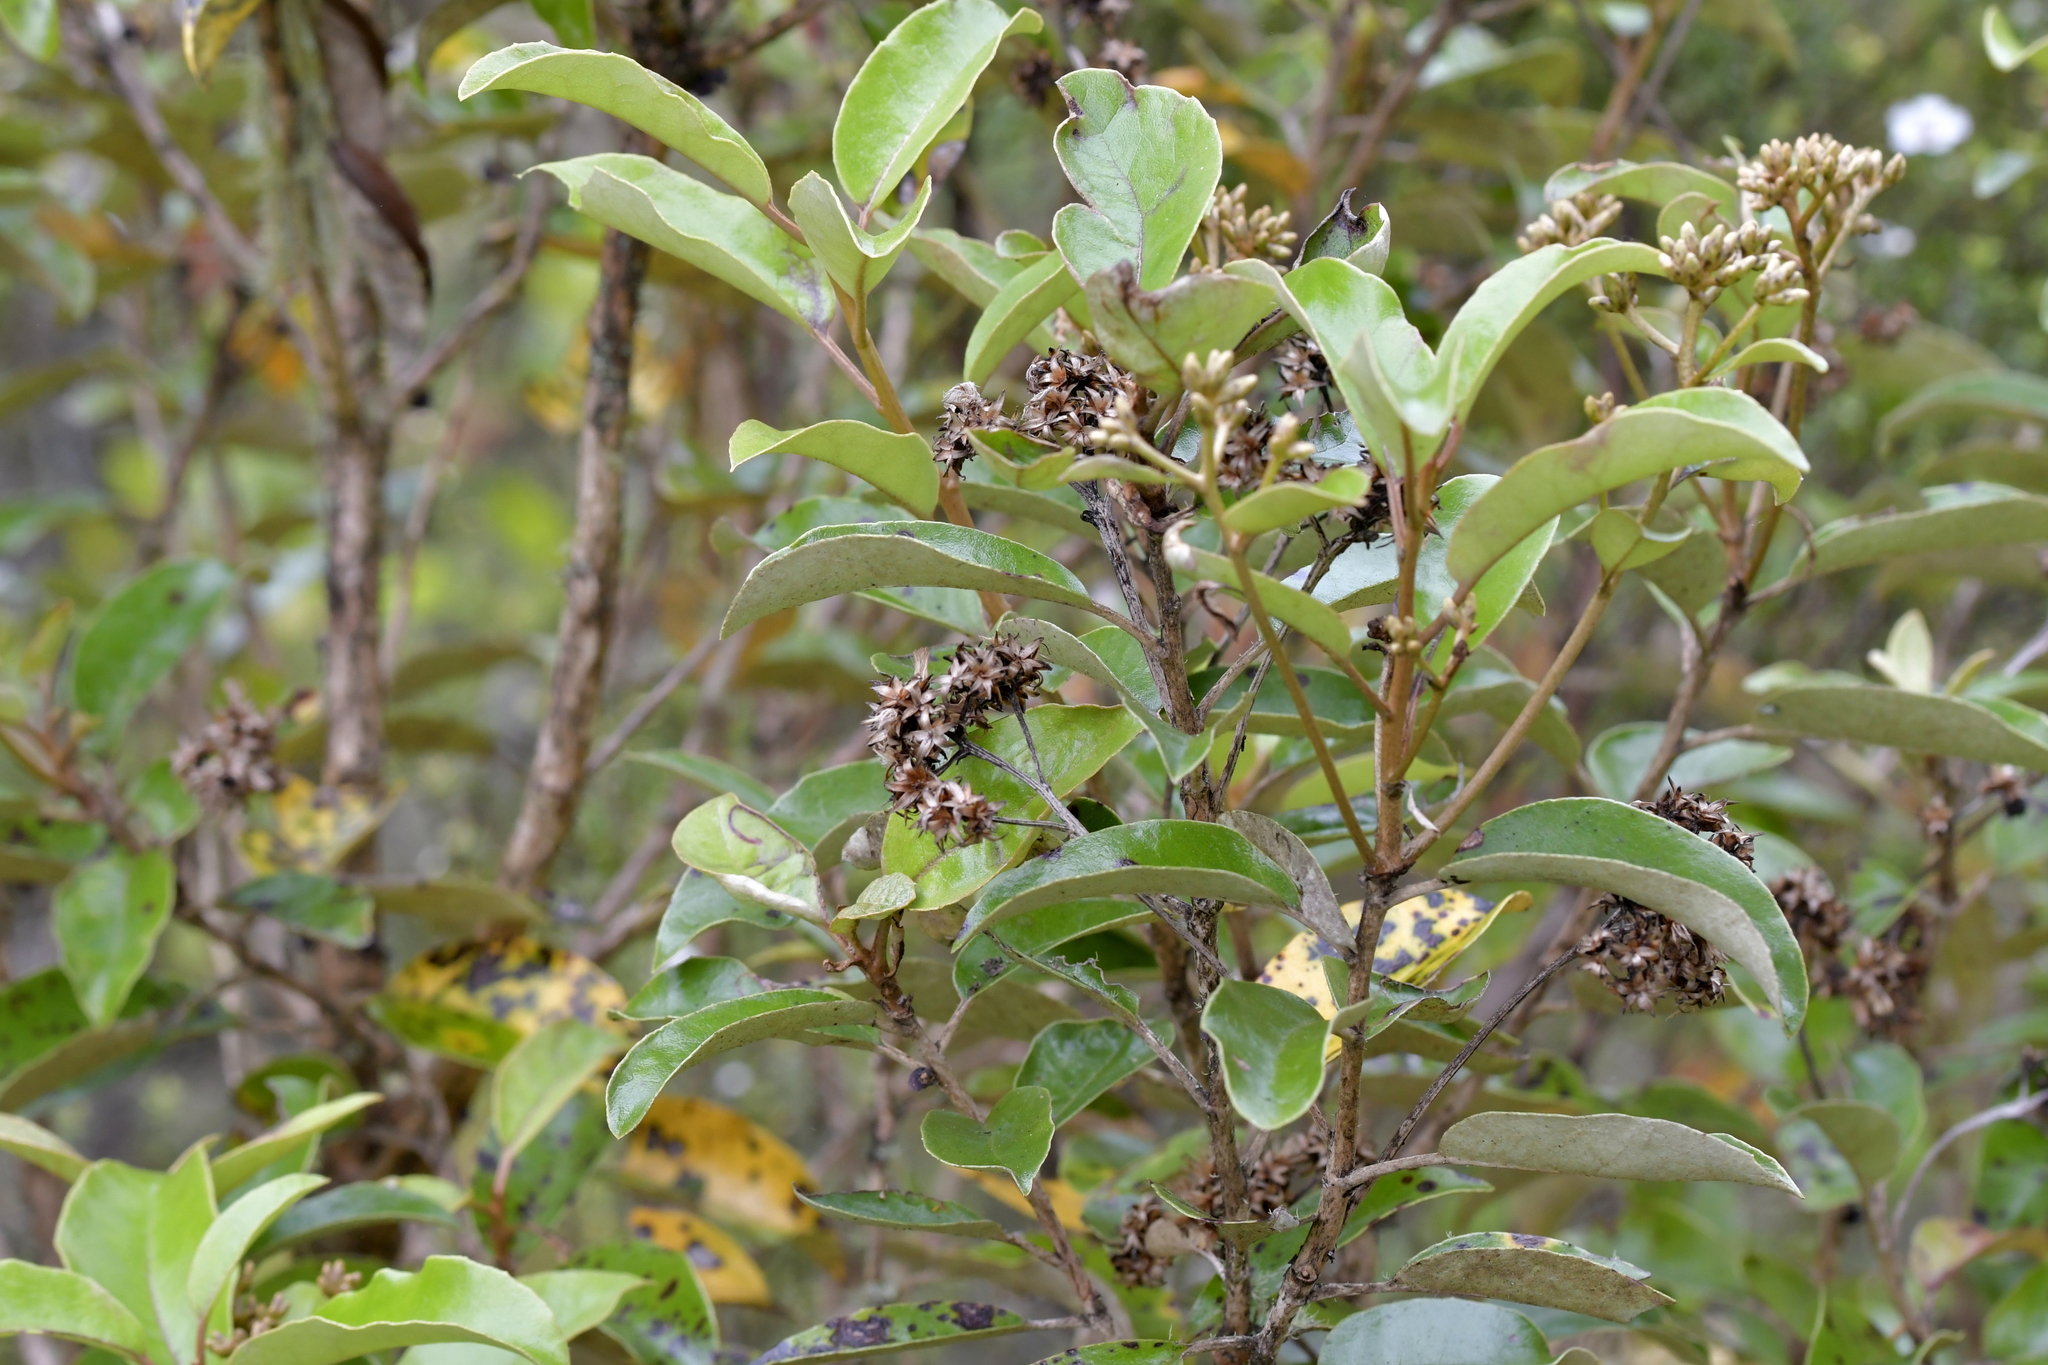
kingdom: Plantae
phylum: Tracheophyta
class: Magnoliopsida
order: Asterales
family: Asteraceae
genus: Olearia
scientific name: Olearia furfuracea
